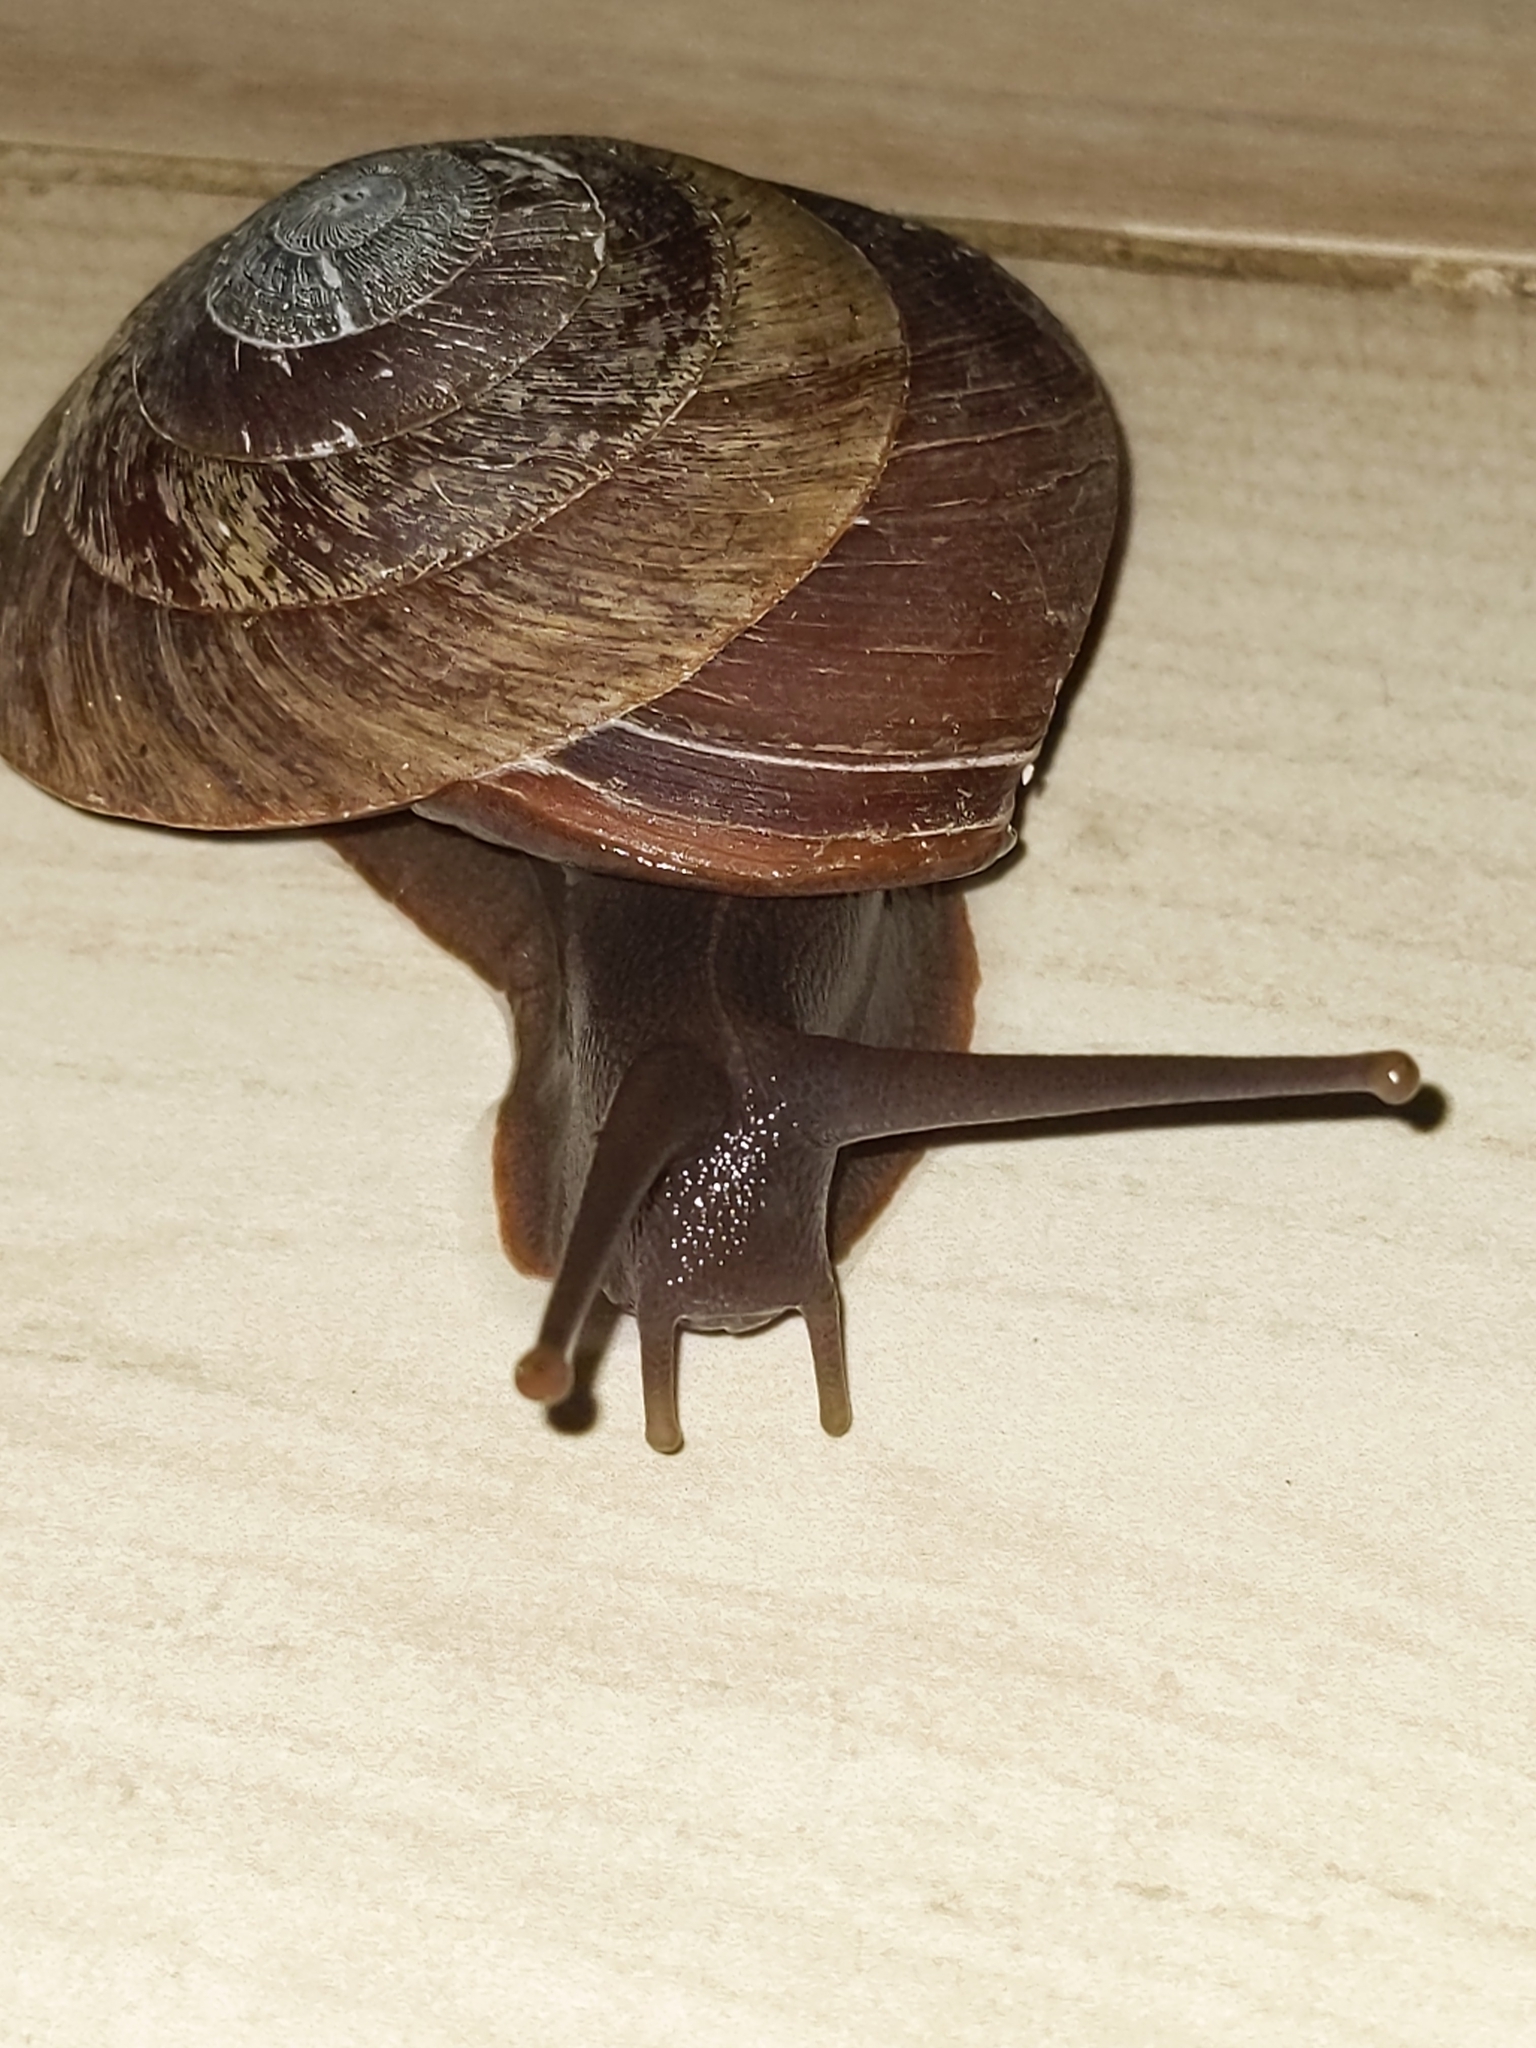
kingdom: Animalia
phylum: Mollusca
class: Gastropoda
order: Stylommatophora
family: Solaropsidae
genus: Caracolus
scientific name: Caracolus carocolla
